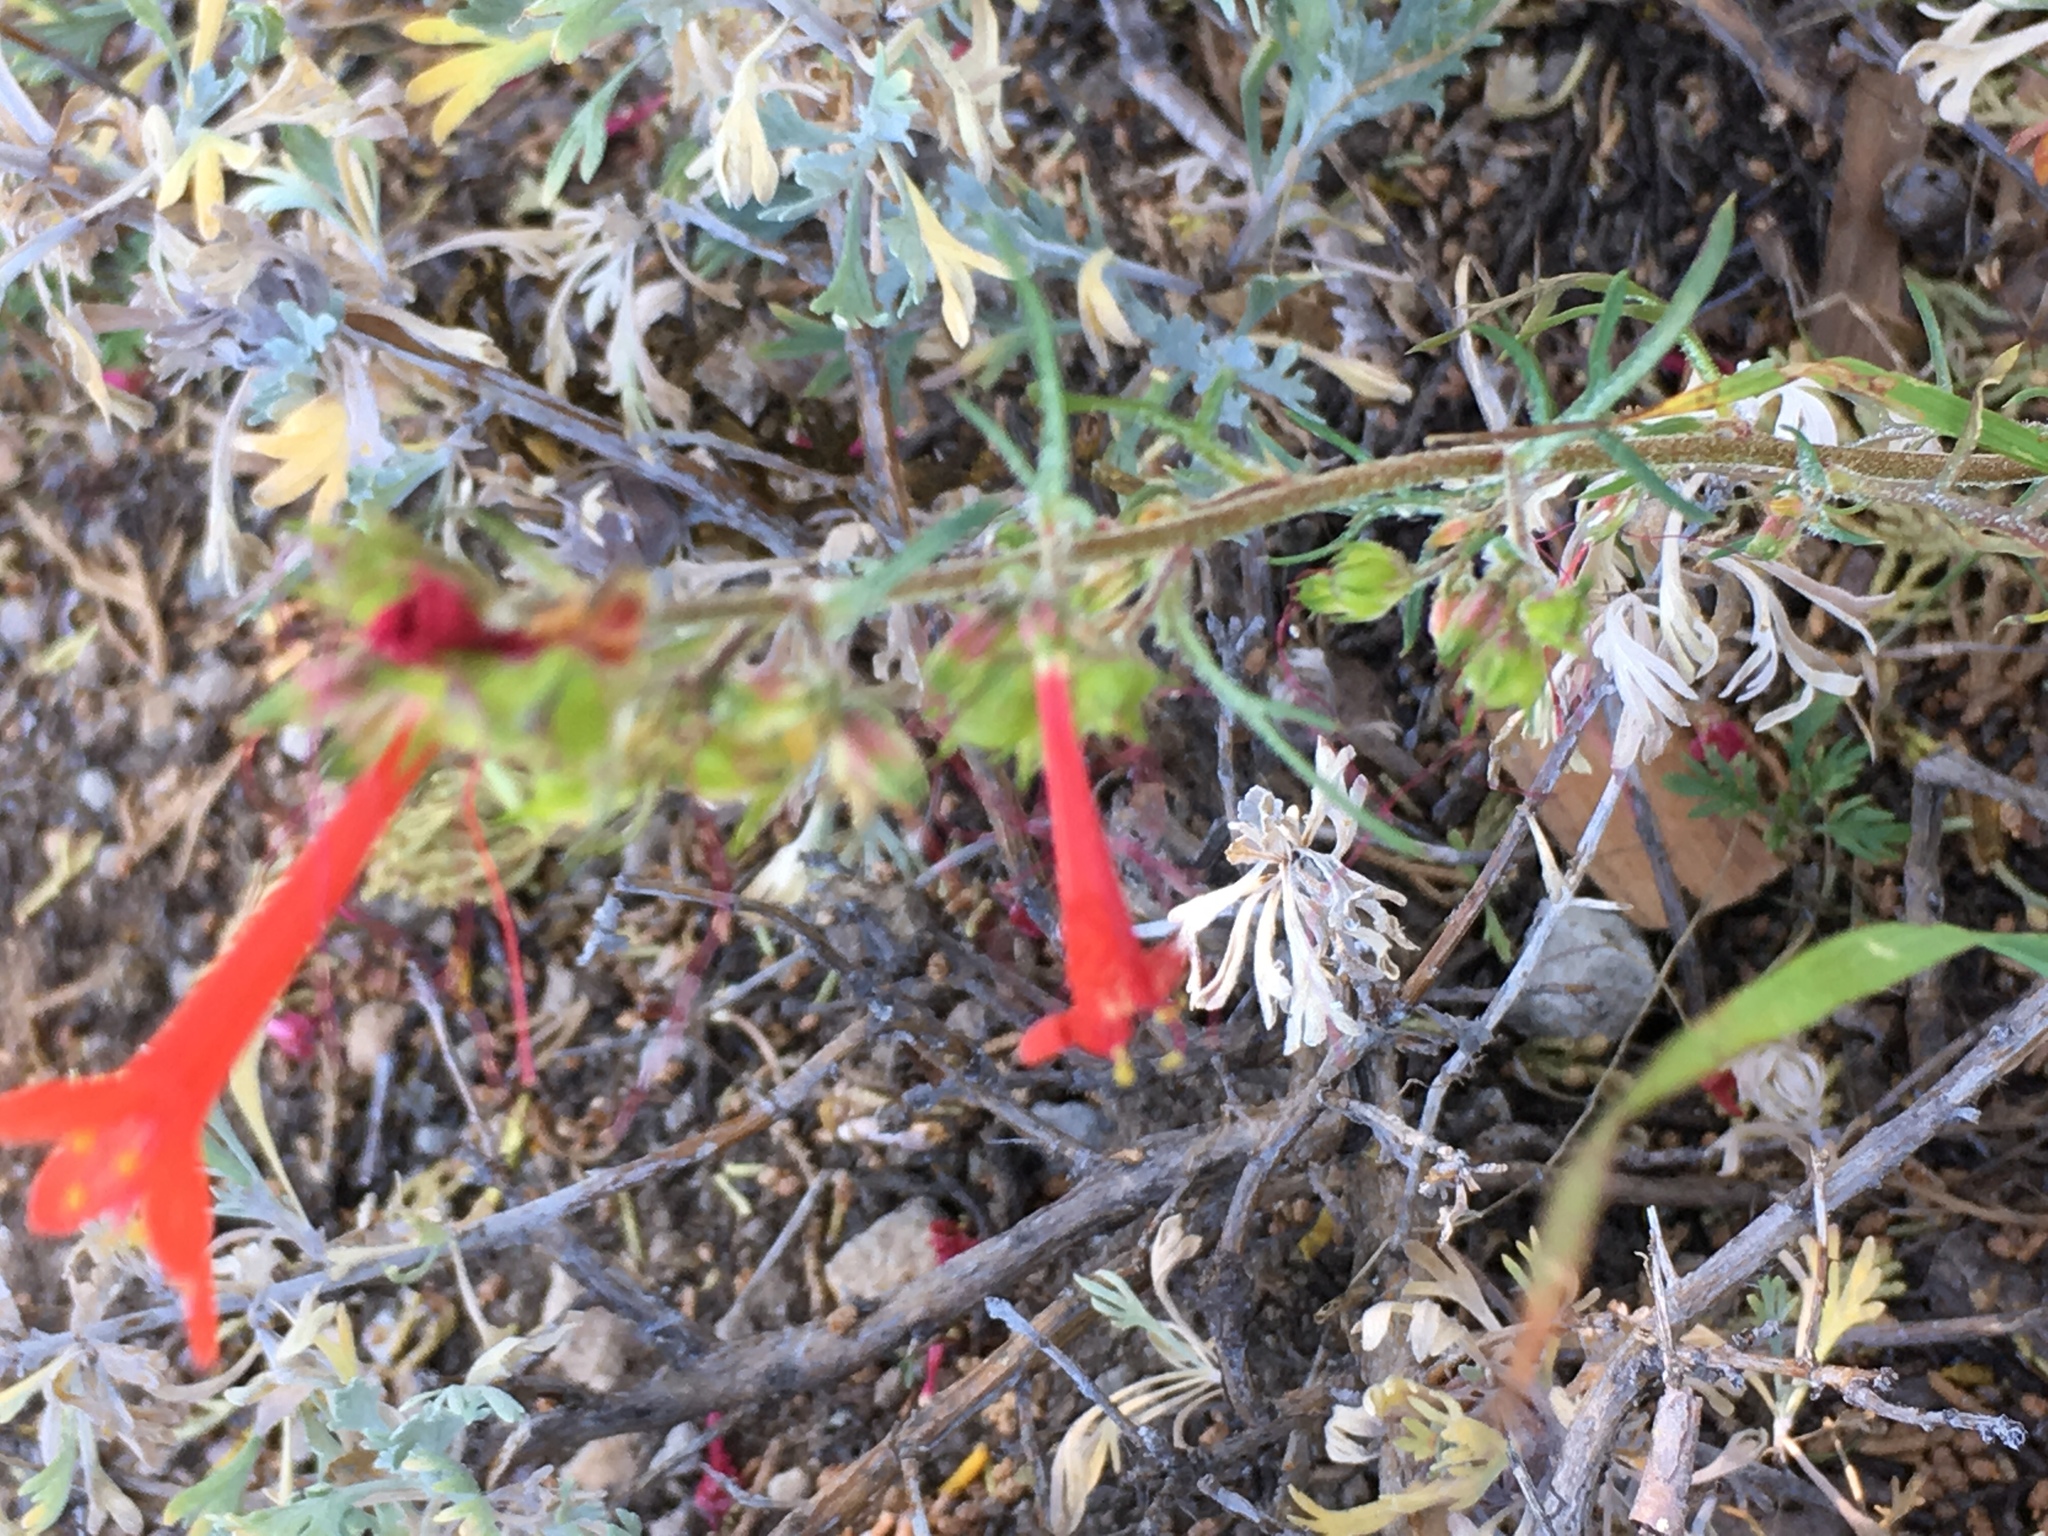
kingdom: Plantae
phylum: Tracheophyta
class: Magnoliopsida
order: Myrtales
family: Onagraceae
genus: Epilobium
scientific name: Epilobium canum
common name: California-fuchsia
